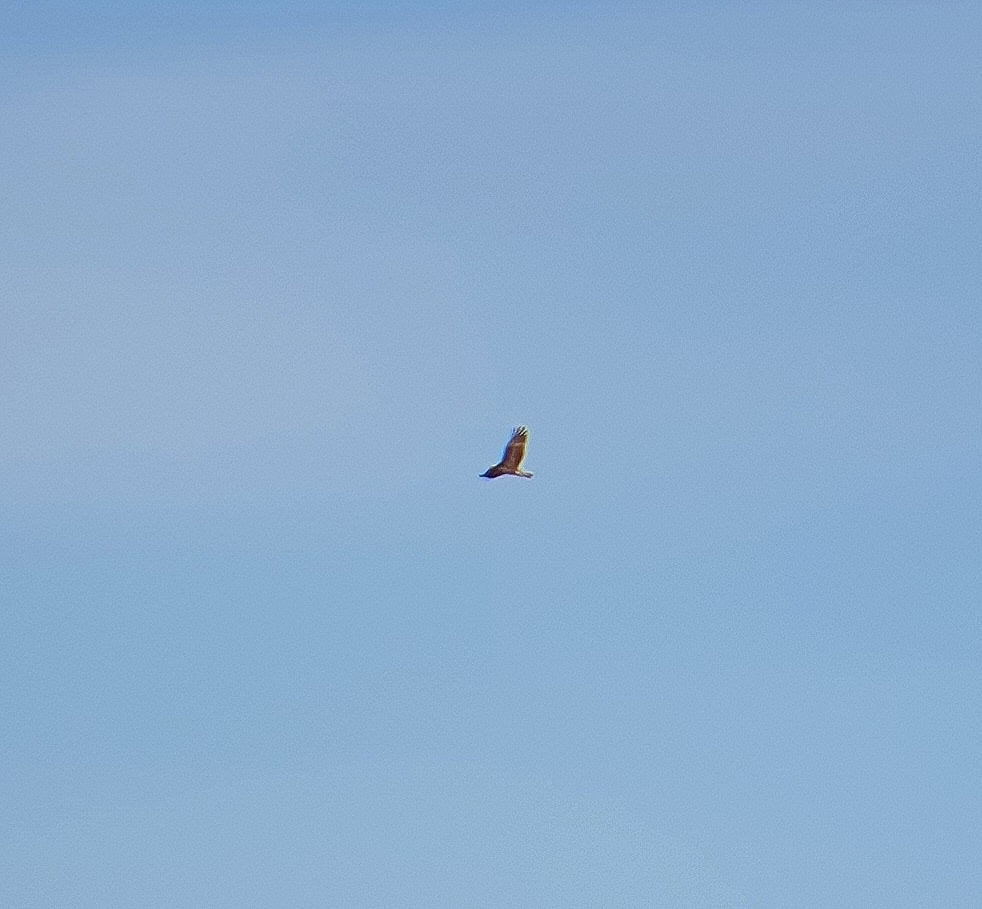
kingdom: Animalia
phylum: Chordata
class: Aves
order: Accipitriformes
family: Pandionidae
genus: Pandion
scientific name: Pandion haliaetus
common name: Osprey
